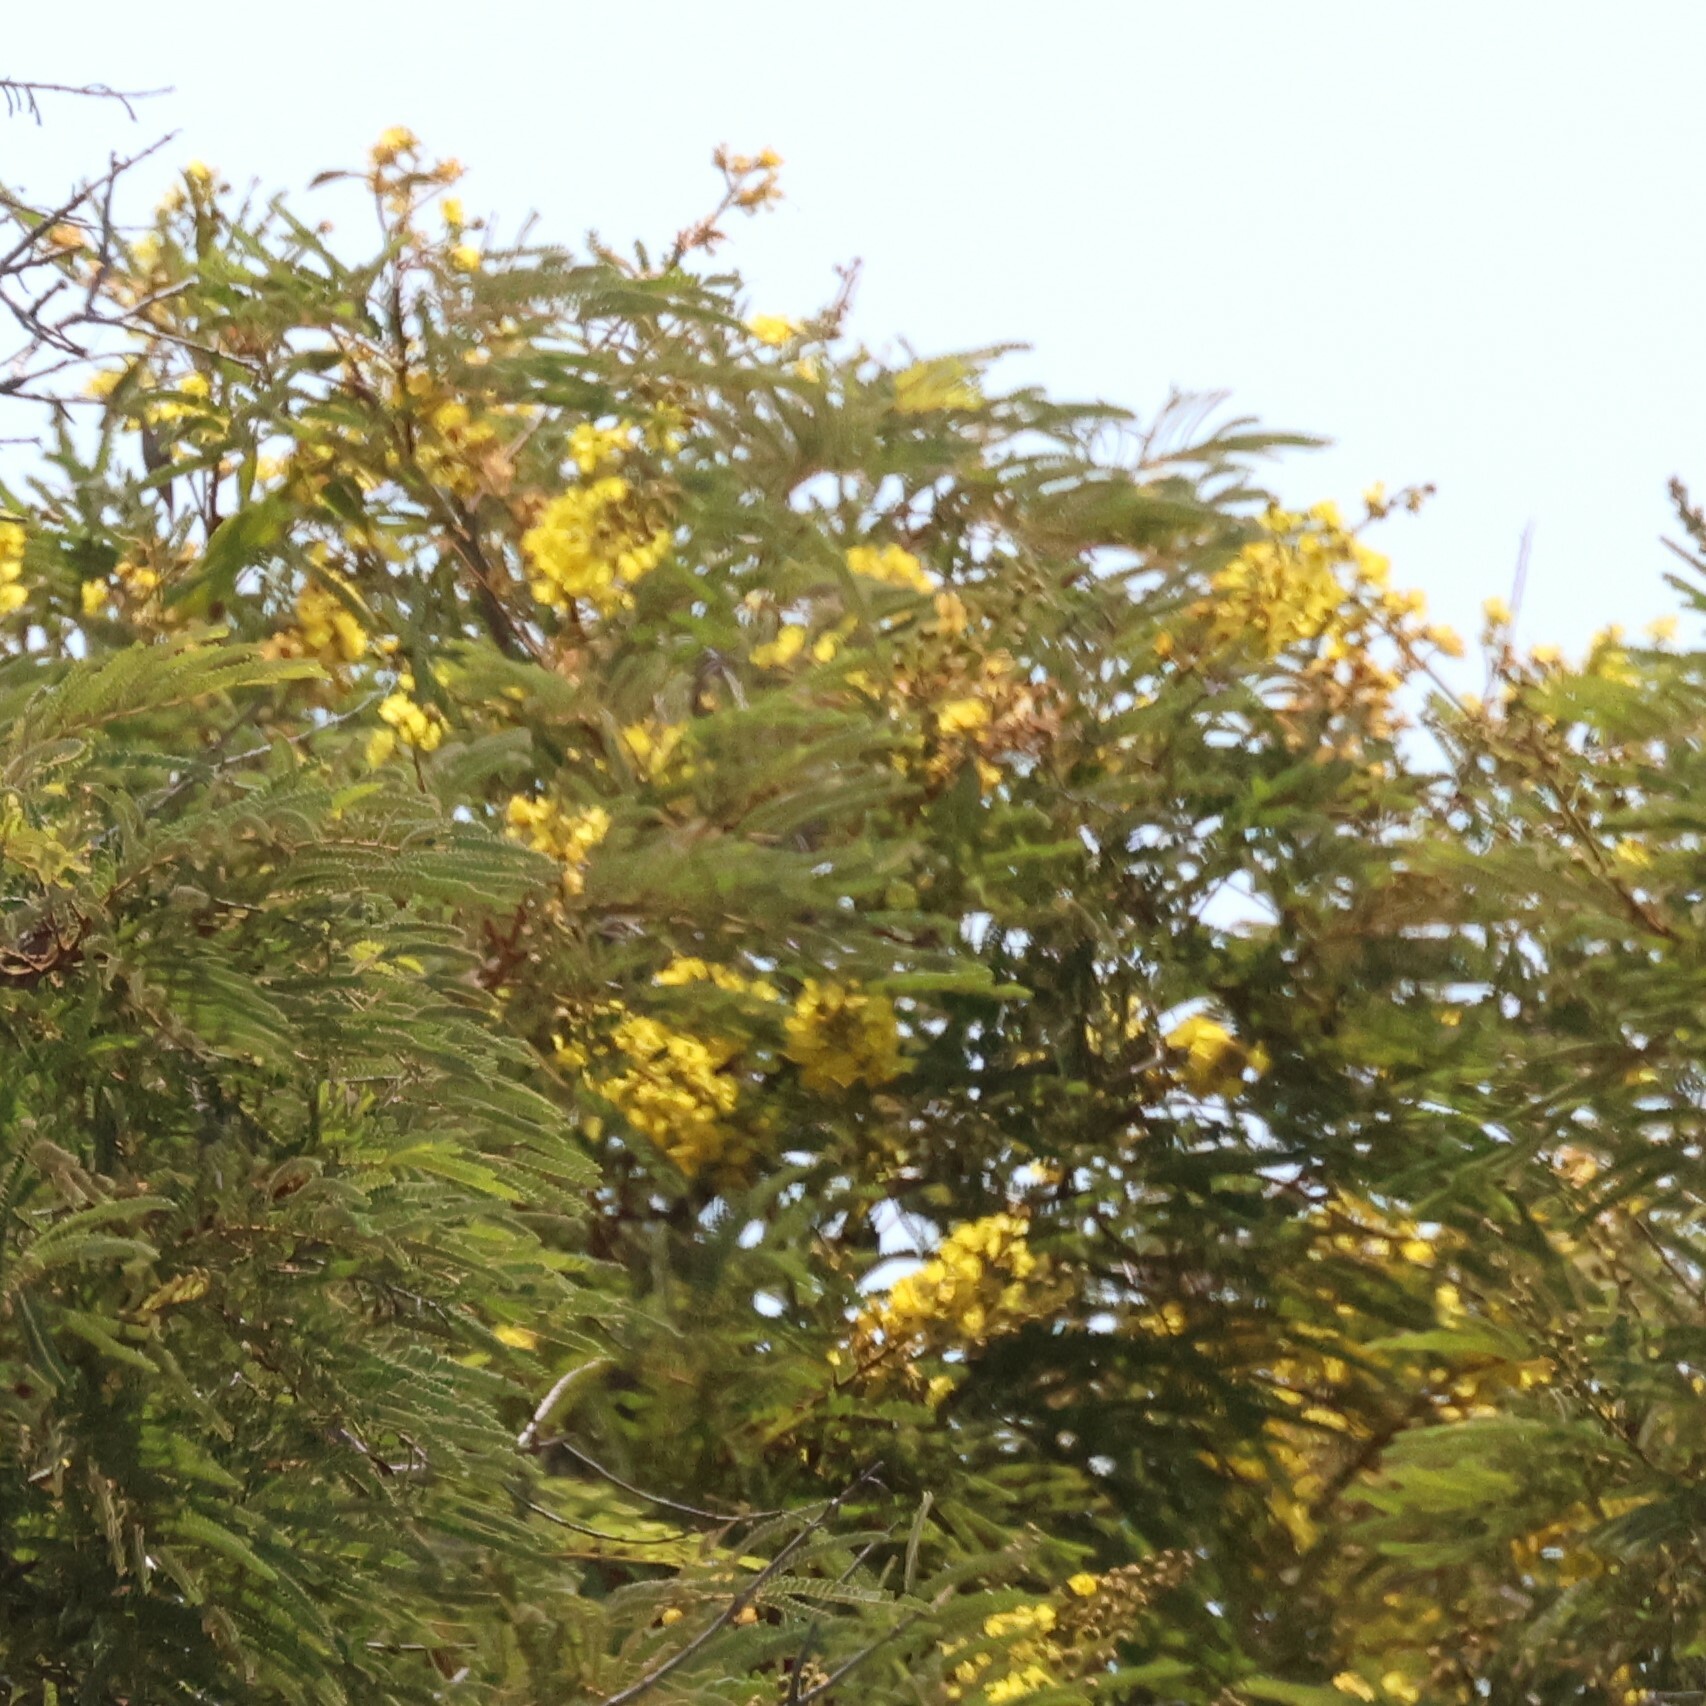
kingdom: Plantae
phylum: Tracheophyta
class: Magnoliopsida
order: Fabales
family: Fabaceae
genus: Peltophorum
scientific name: Peltophorum africanum
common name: African black wattle
